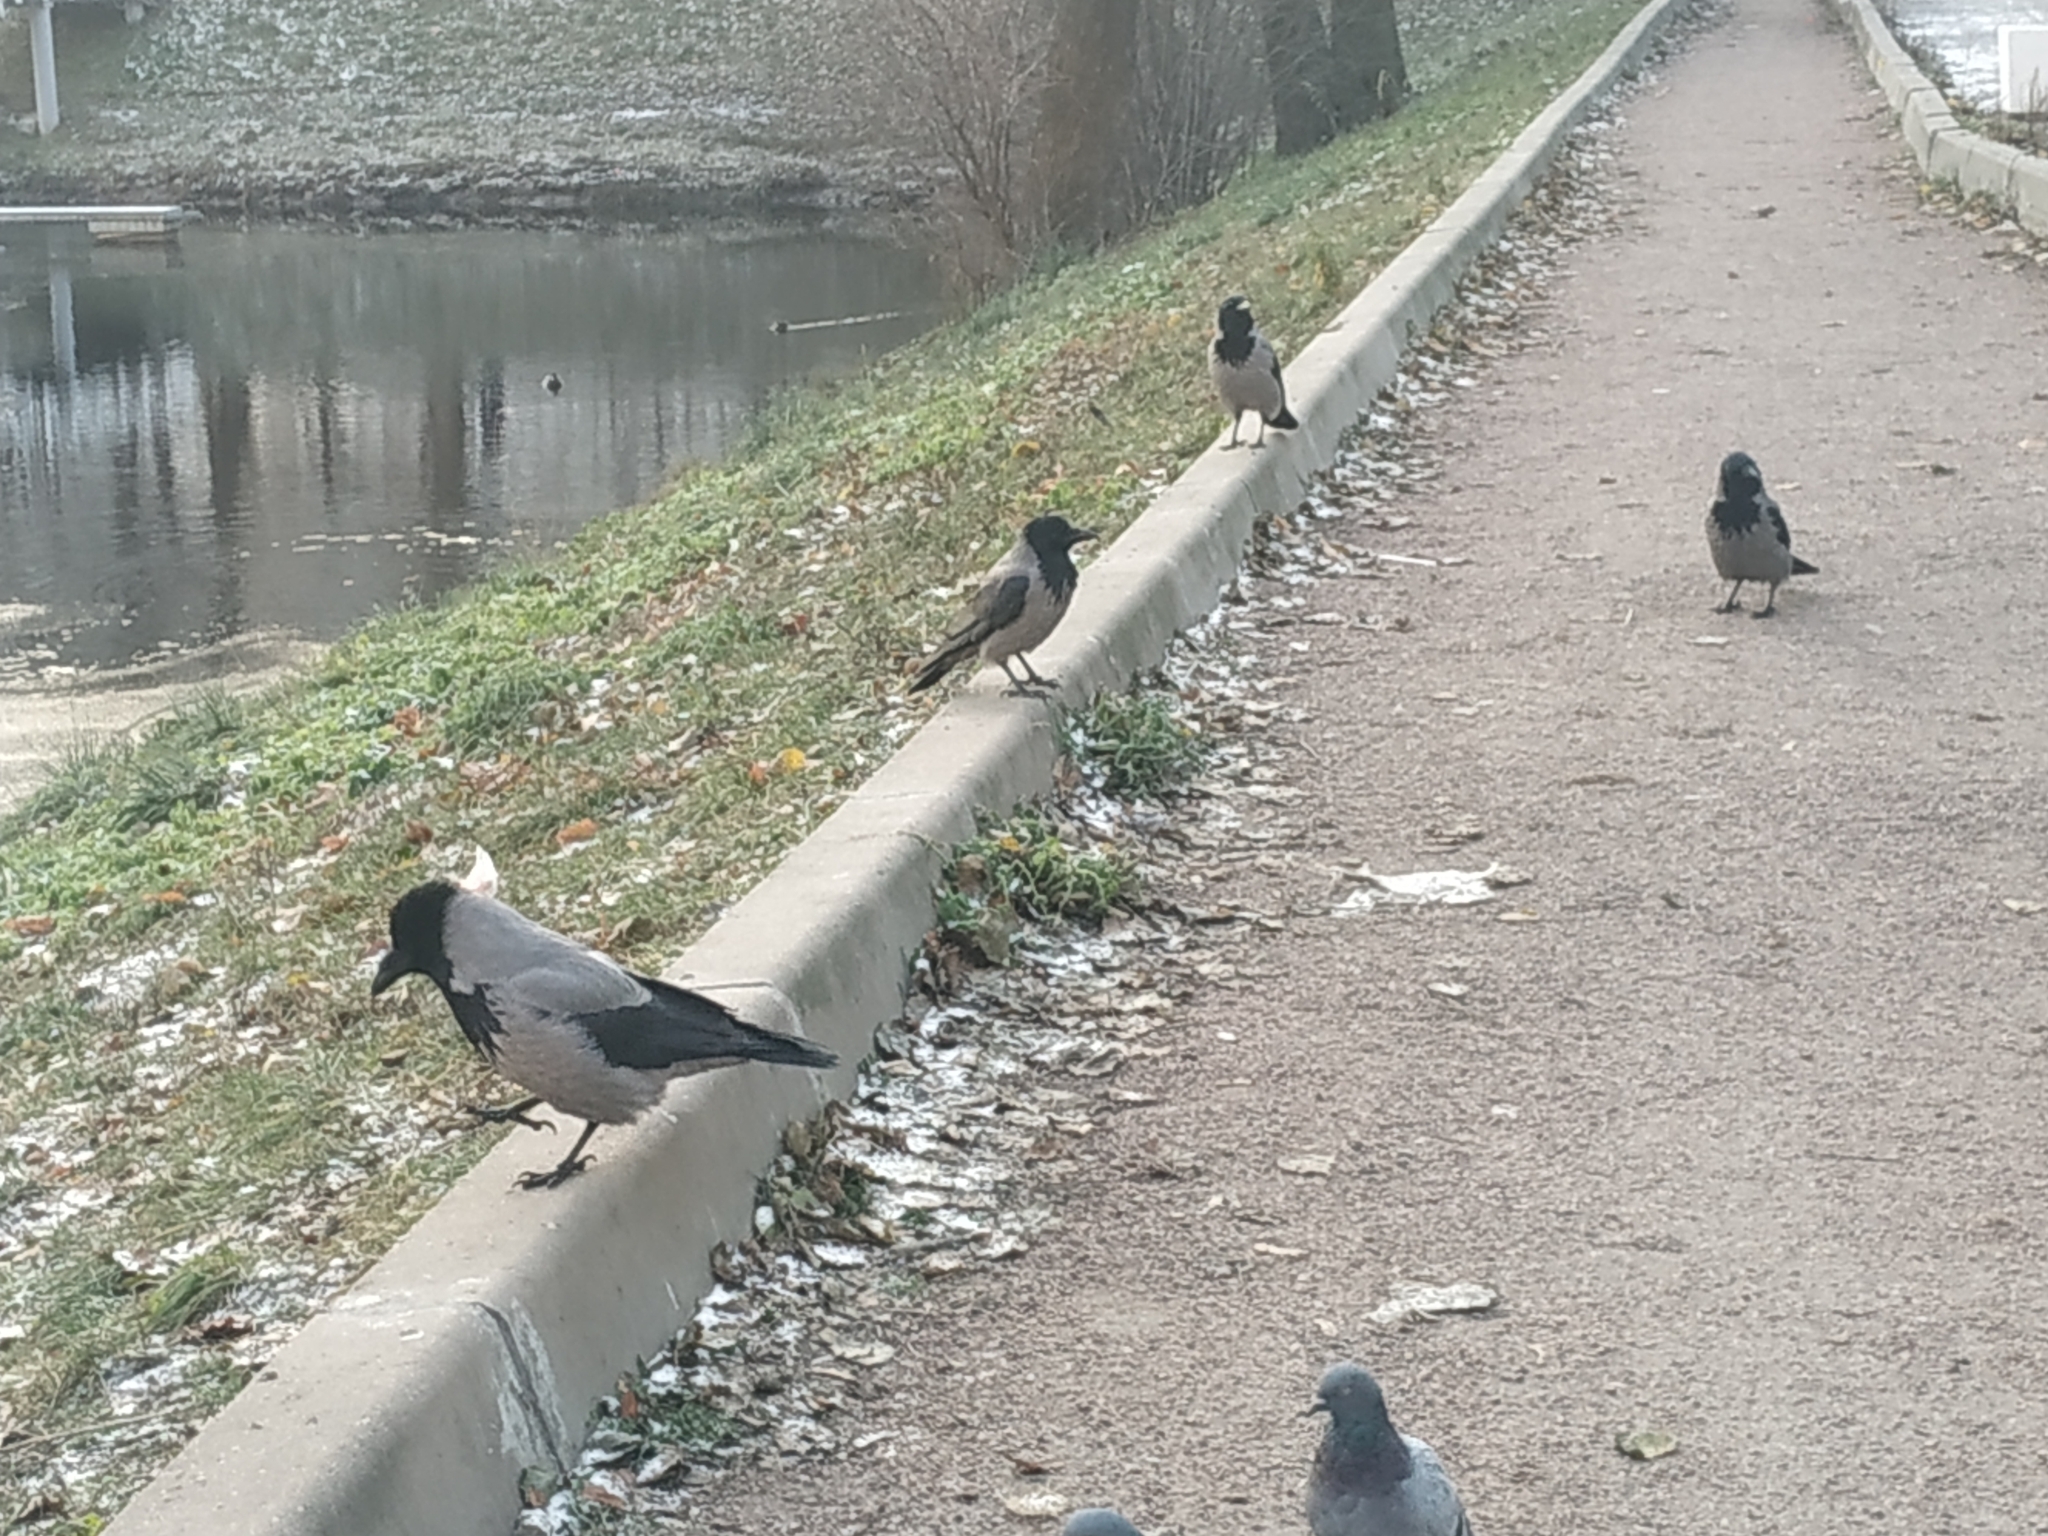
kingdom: Animalia
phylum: Chordata
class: Aves
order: Passeriformes
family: Corvidae
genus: Corvus
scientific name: Corvus cornix
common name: Hooded crow
